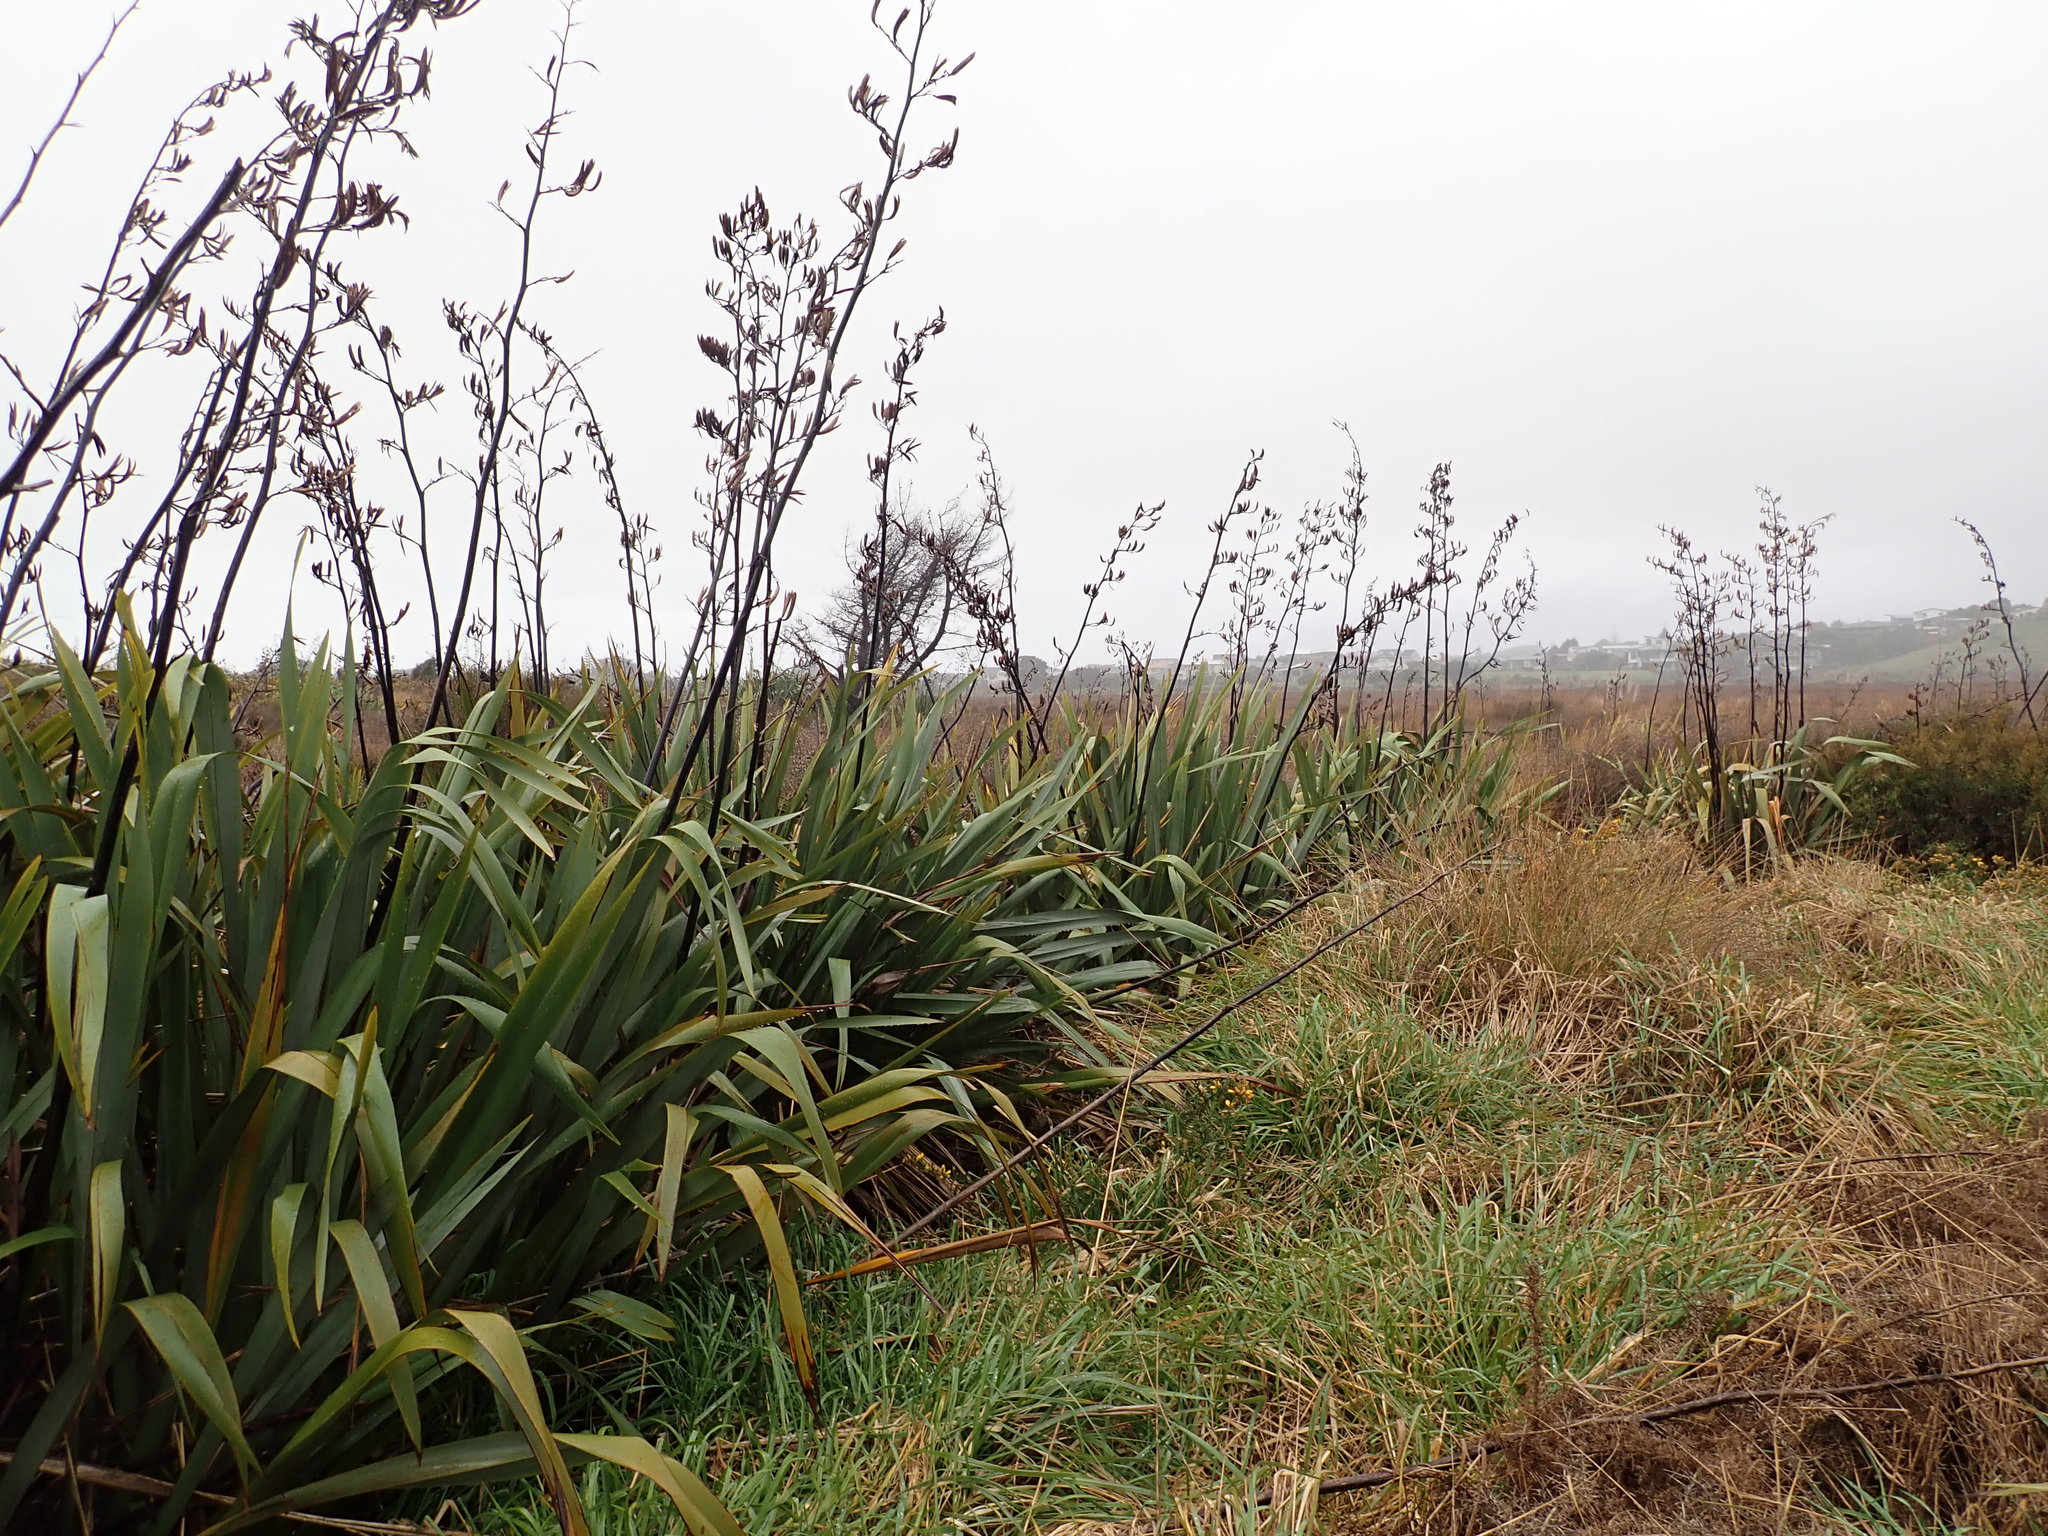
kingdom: Plantae
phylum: Tracheophyta
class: Liliopsida
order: Asparagales
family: Asphodelaceae
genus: Phormium
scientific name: Phormium tenax
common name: New zealand flax
